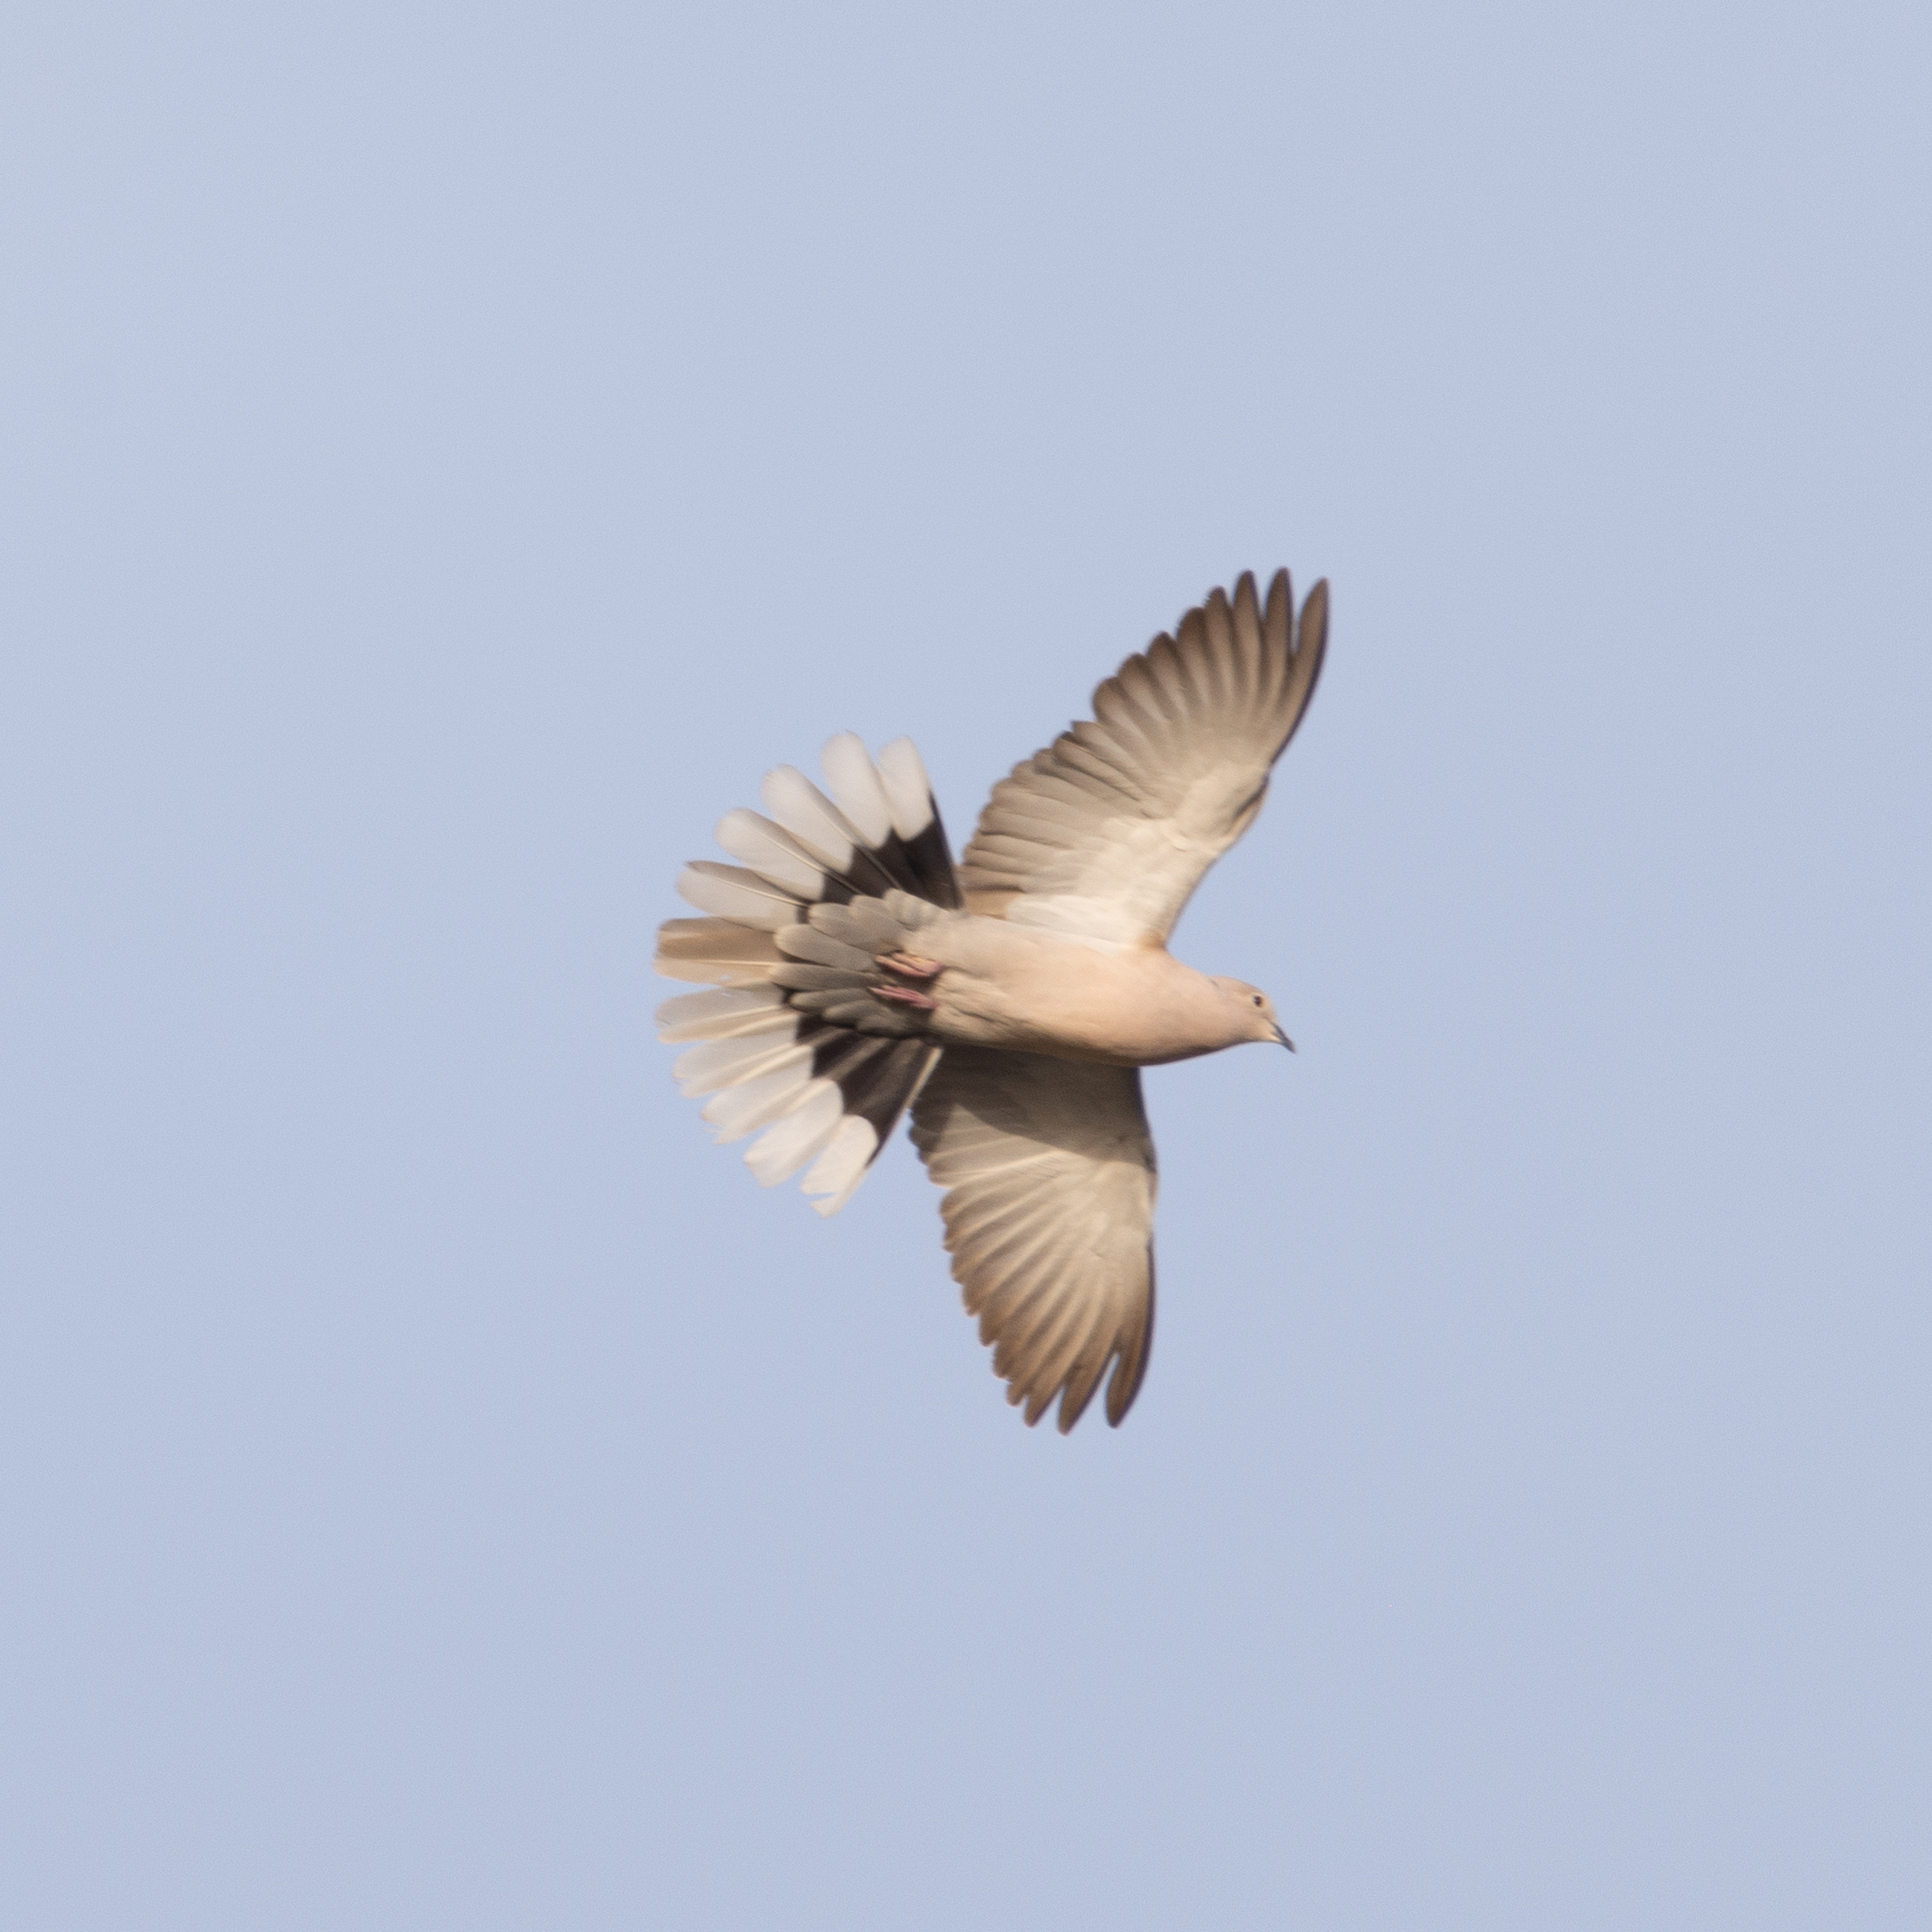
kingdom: Animalia
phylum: Chordata
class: Aves
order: Columbiformes
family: Columbidae
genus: Streptopelia
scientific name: Streptopelia decaocto
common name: Eurasian collared dove
